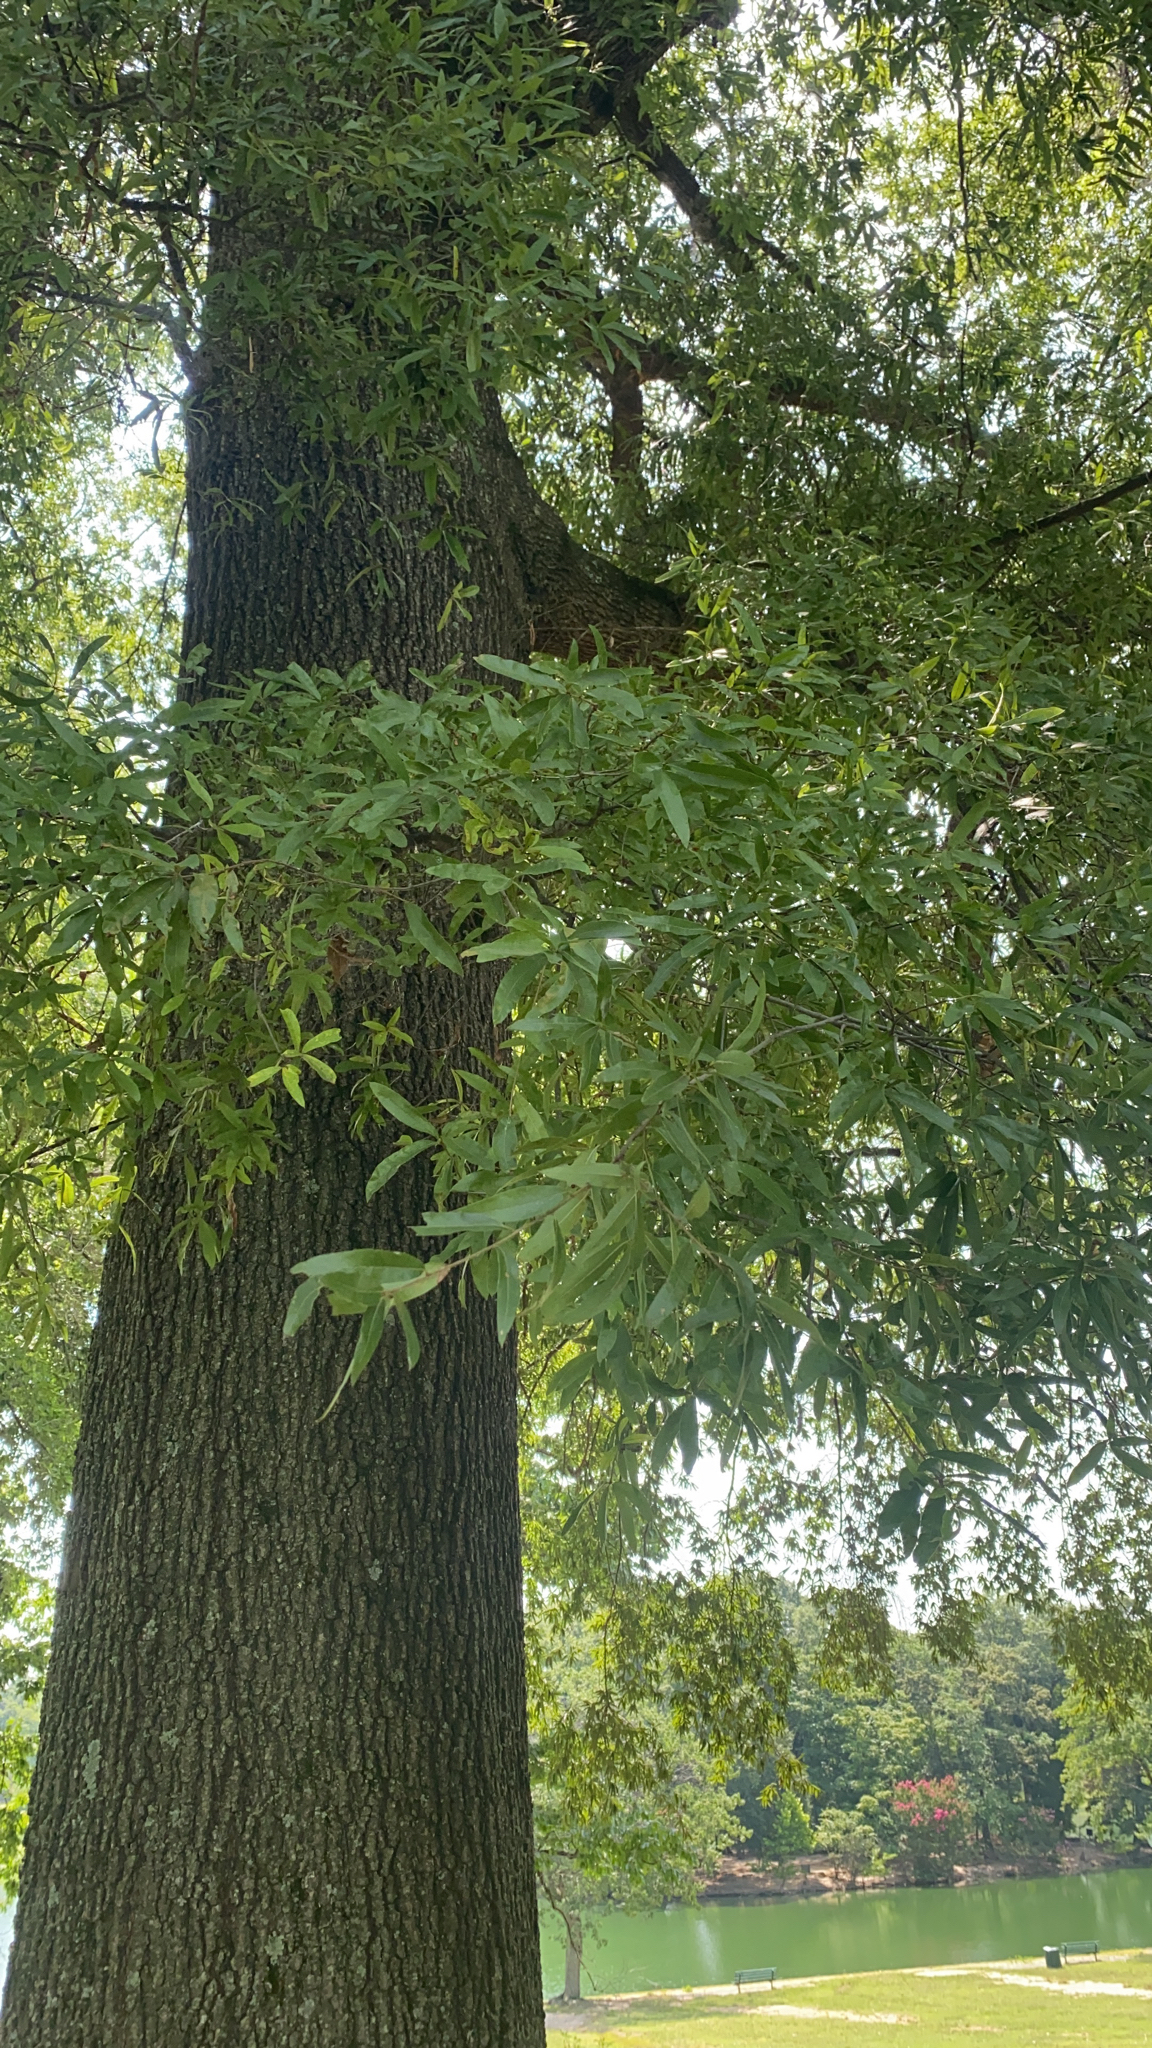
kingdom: Plantae
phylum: Tracheophyta
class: Magnoliopsida
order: Fagales
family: Fagaceae
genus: Quercus
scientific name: Quercus phellos
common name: Willow oak
